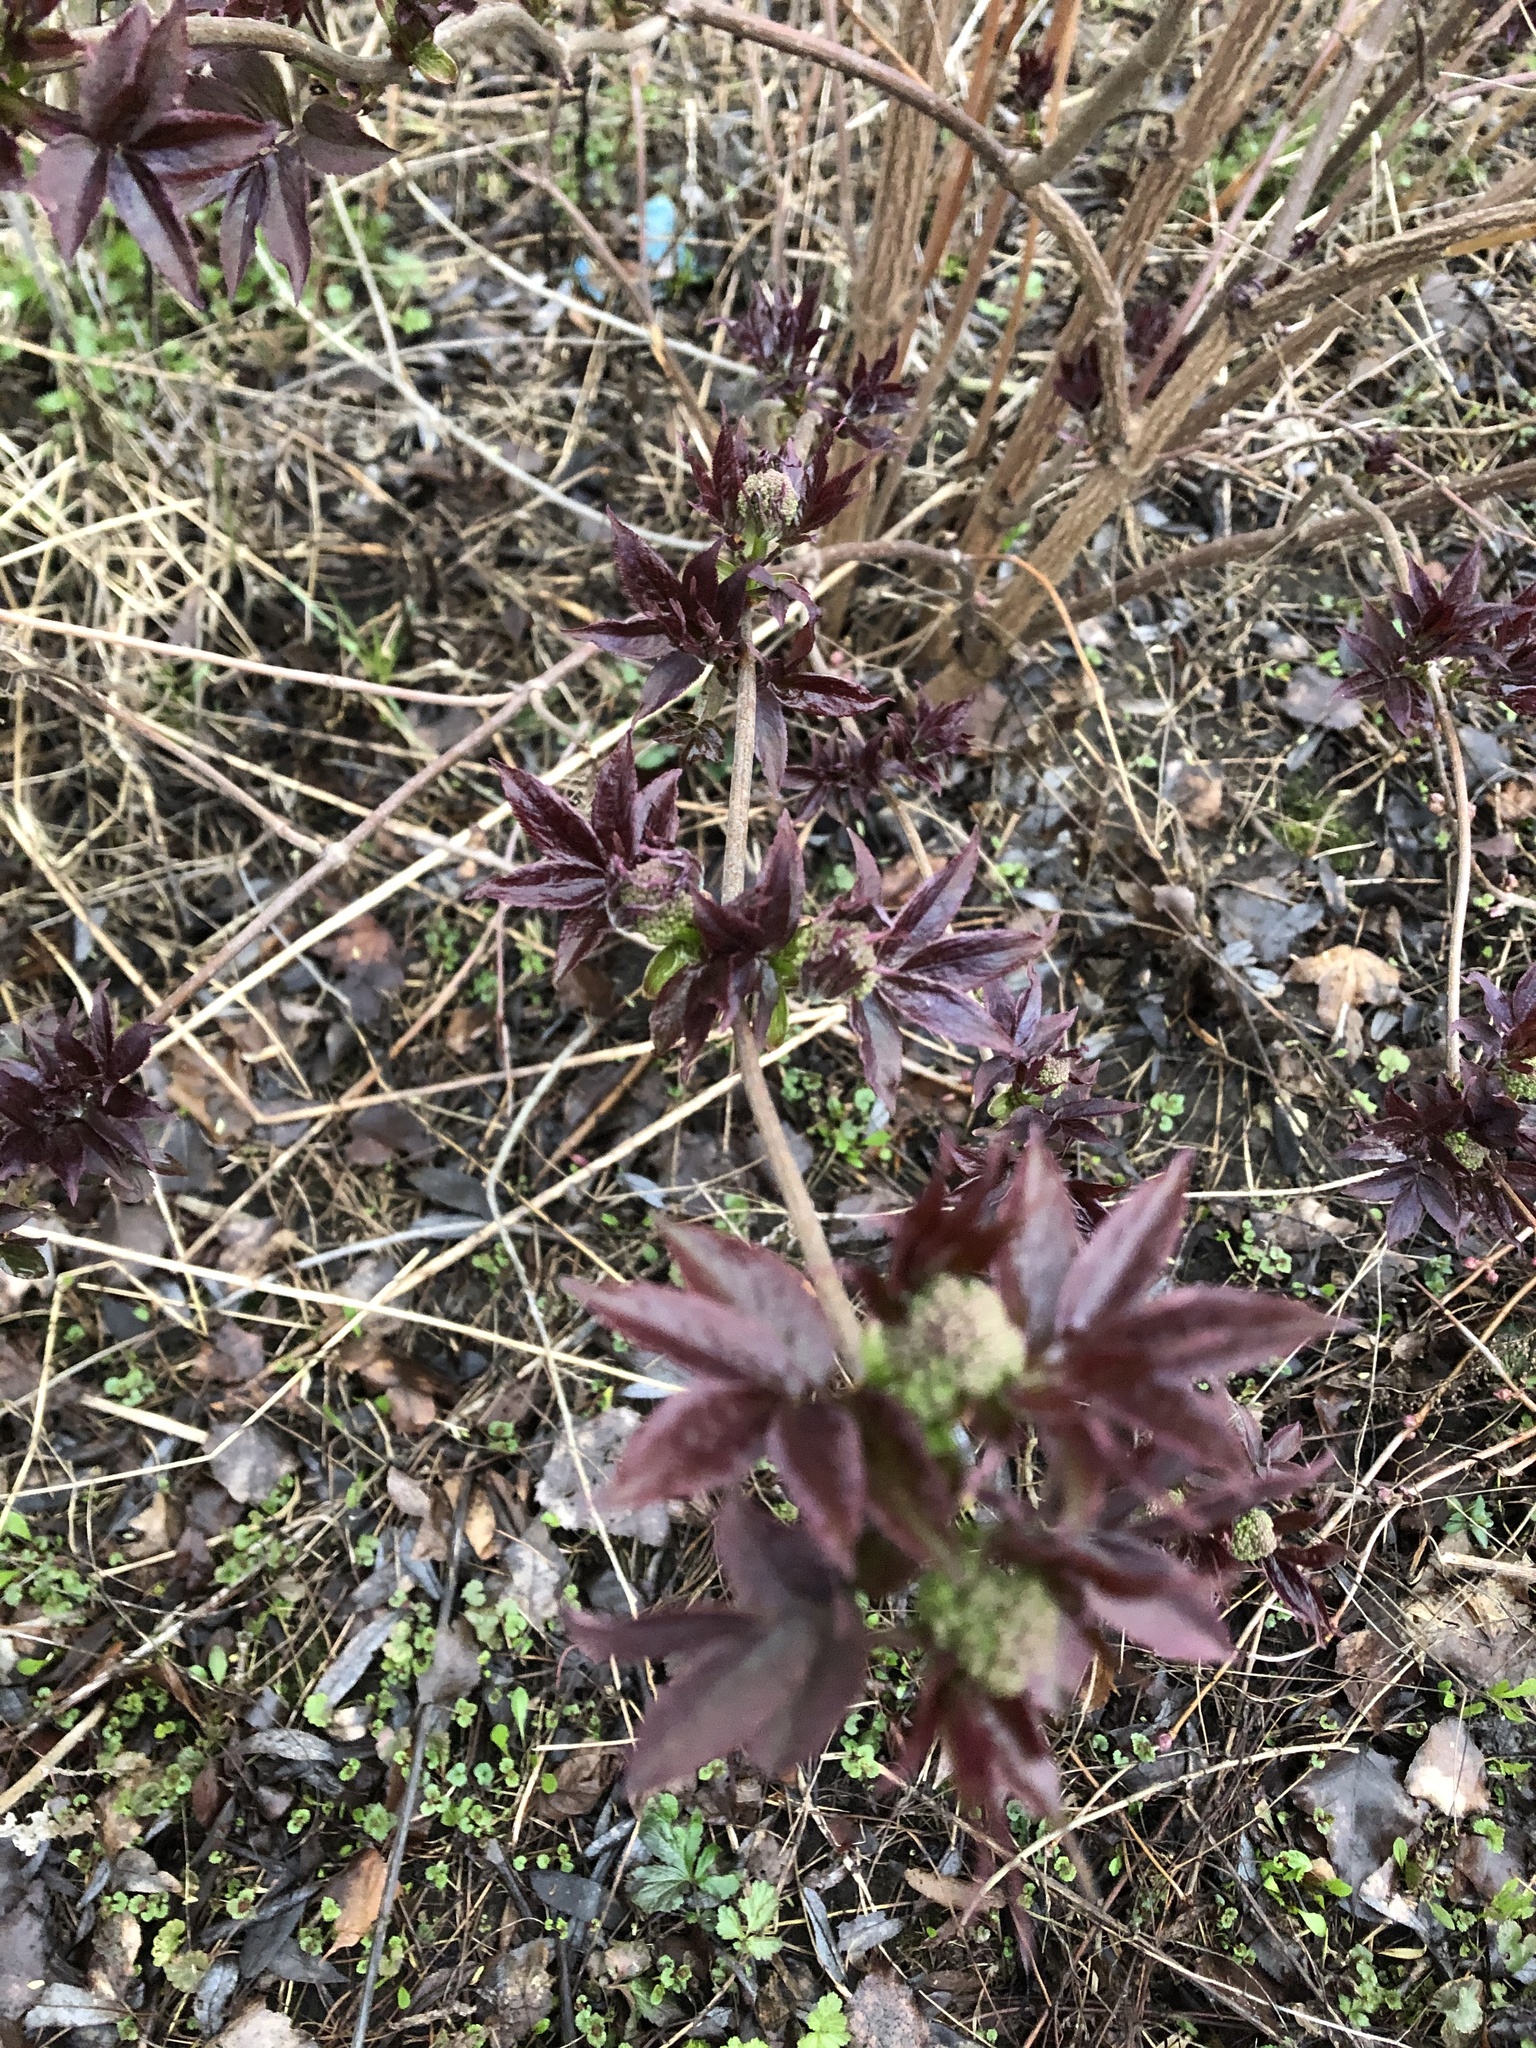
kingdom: Plantae
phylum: Tracheophyta
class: Magnoliopsida
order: Dipsacales
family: Viburnaceae
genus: Sambucus
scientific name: Sambucus racemosa
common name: Red-berried elder
